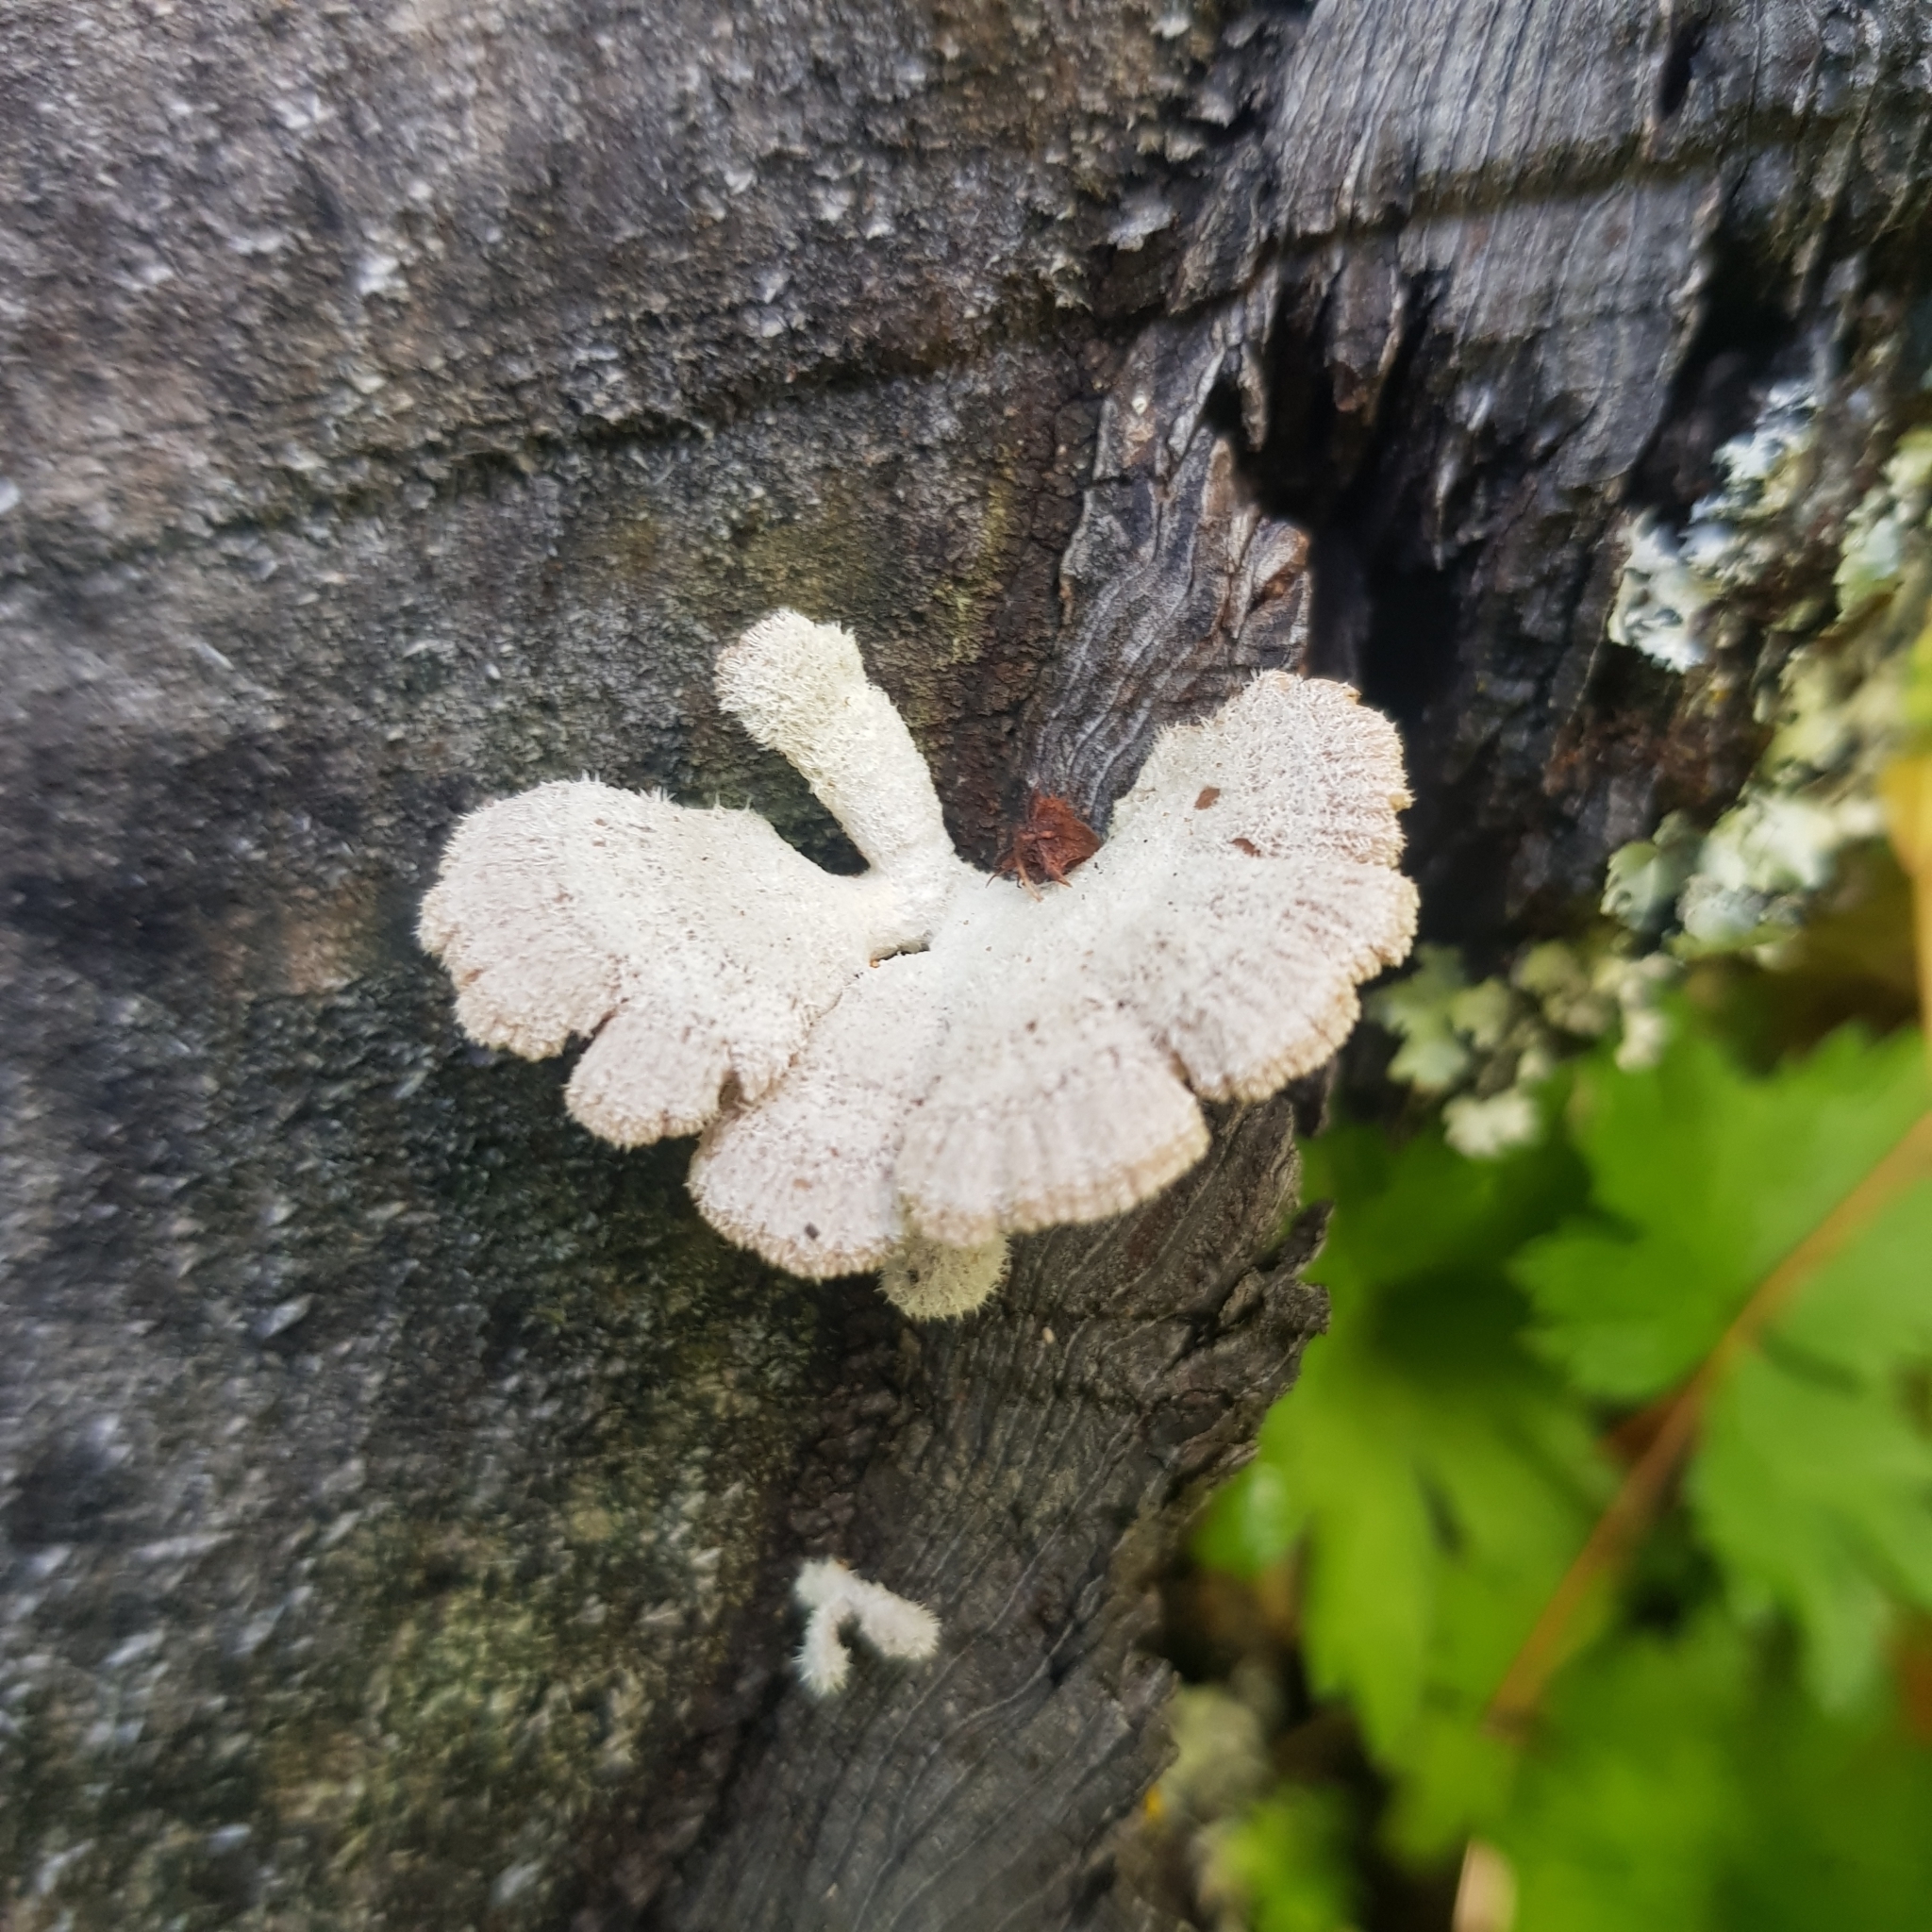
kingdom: Fungi
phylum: Basidiomycota
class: Agaricomycetes
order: Agaricales
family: Schizophyllaceae
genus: Schizophyllum
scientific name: Schizophyllum commune
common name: Common porecrust
